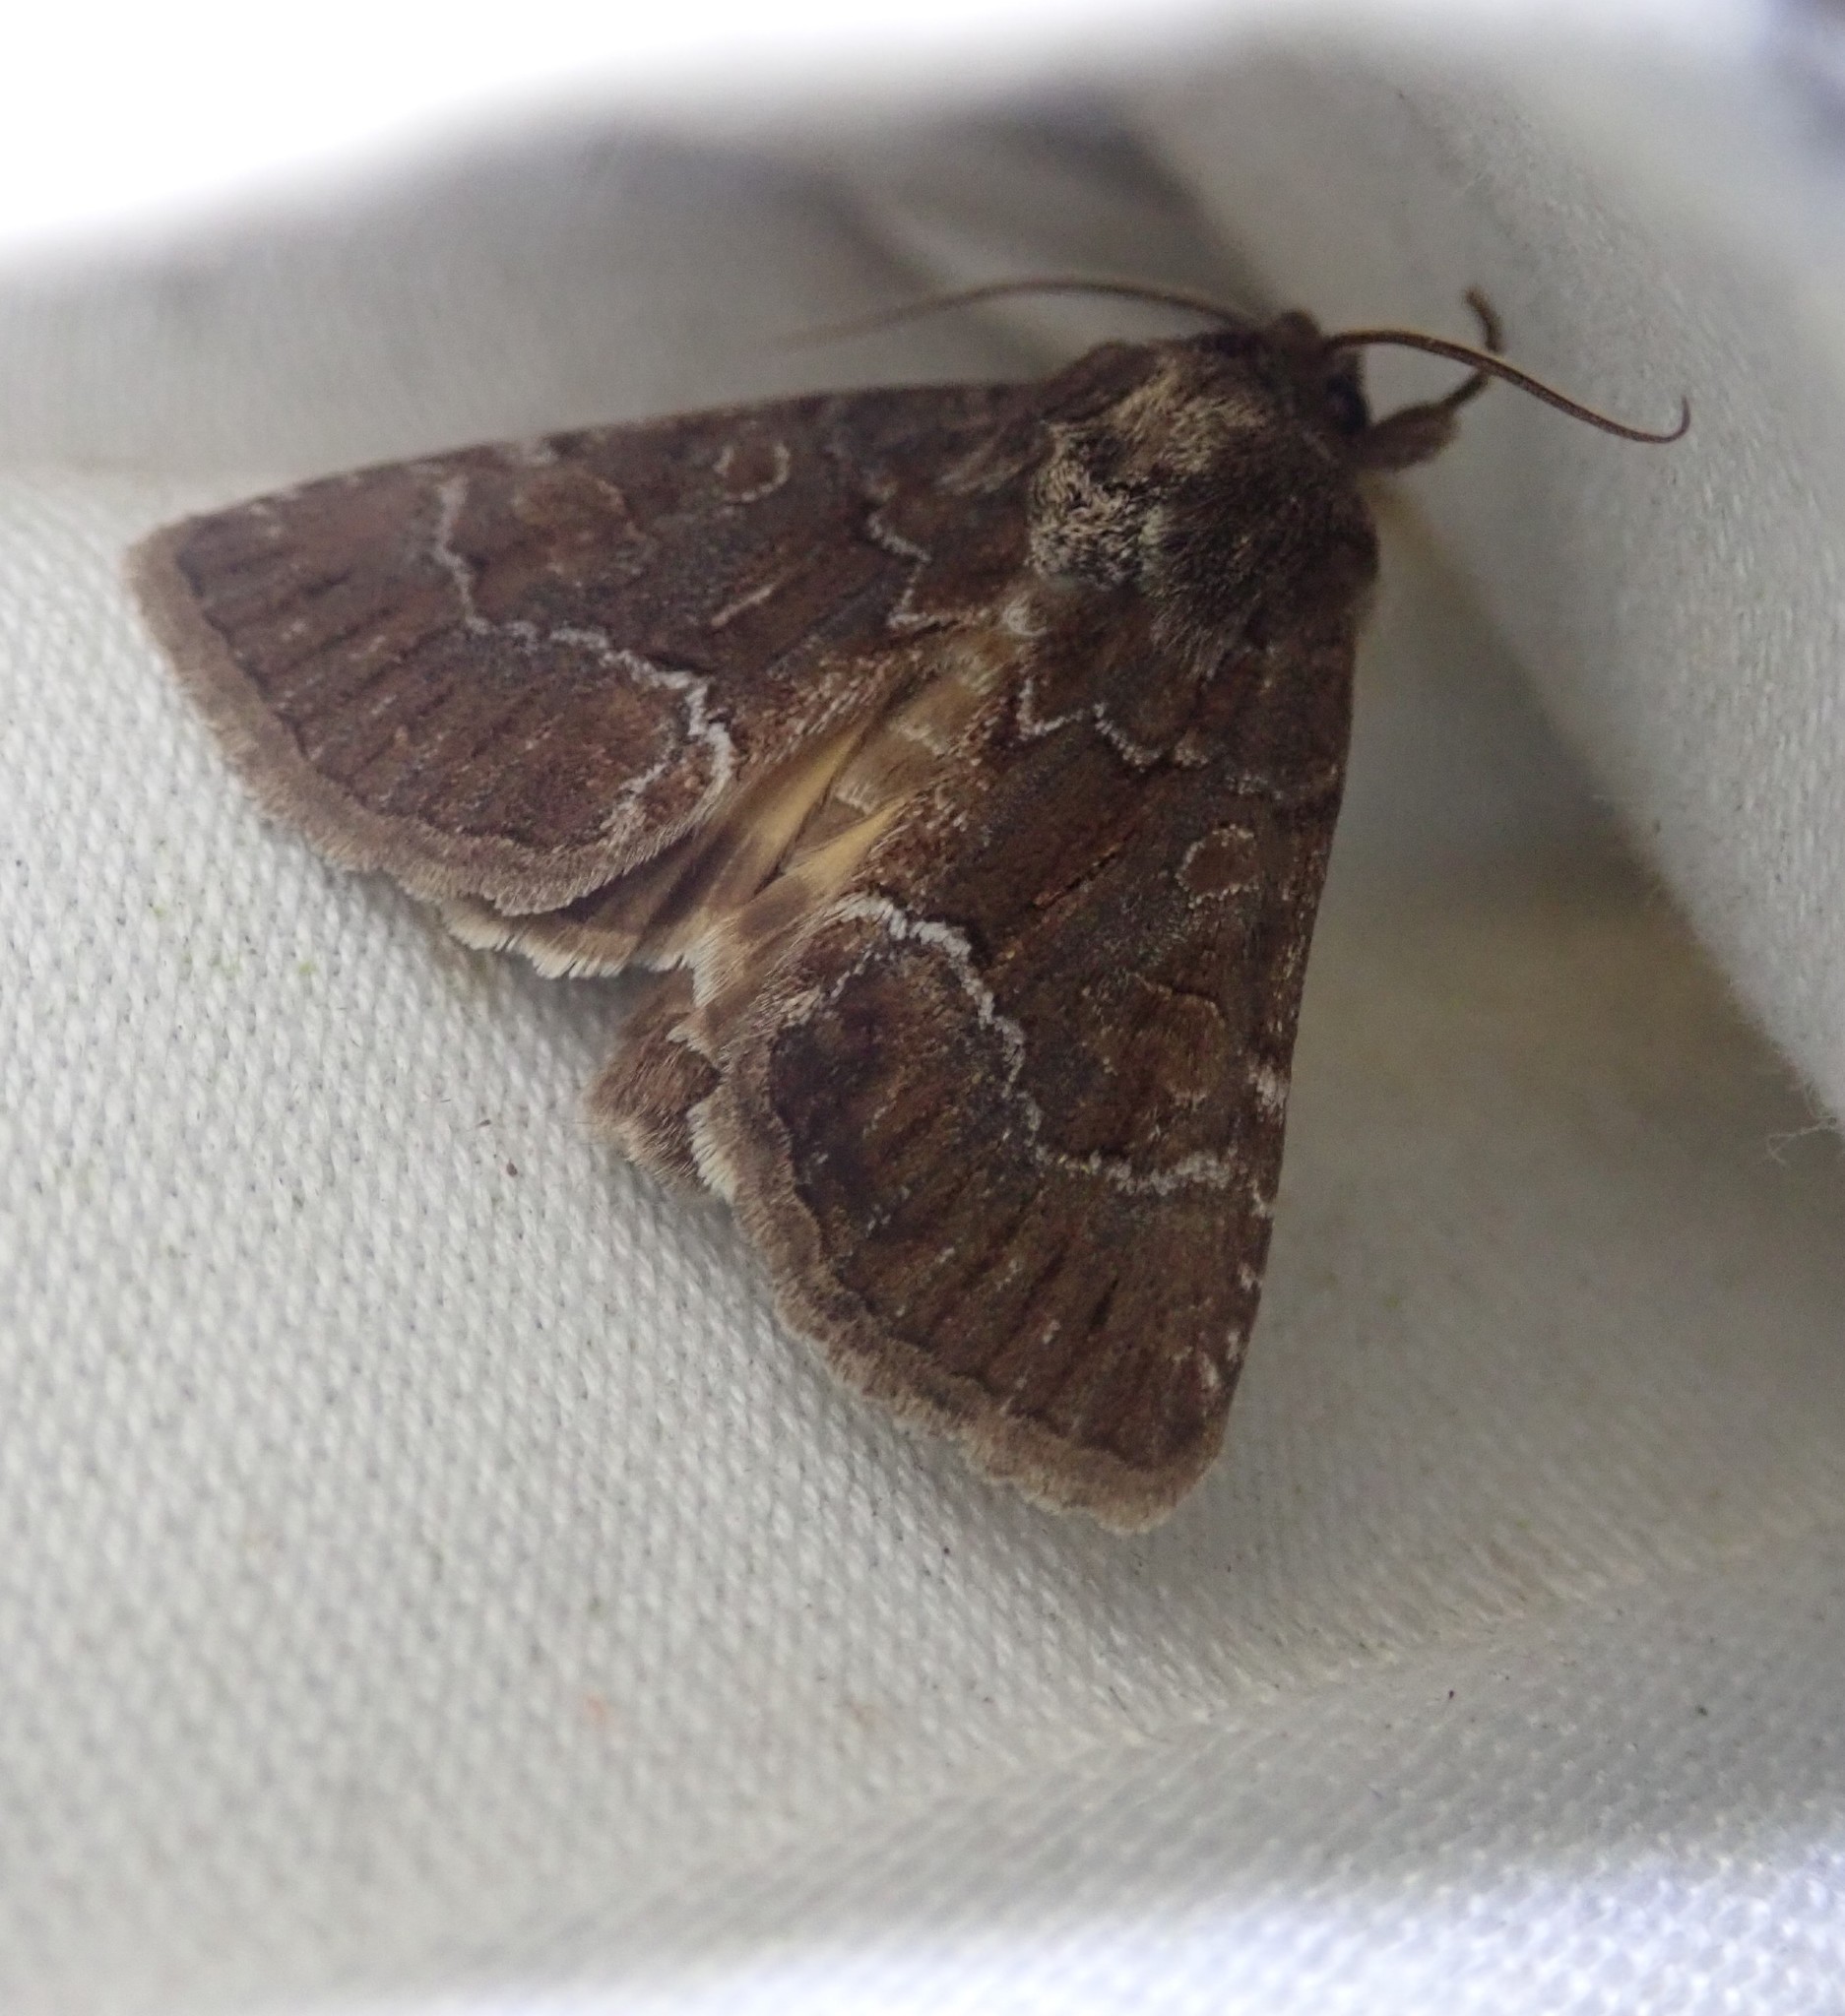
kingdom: Animalia
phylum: Arthropoda
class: Insecta
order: Lepidoptera
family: Noctuidae
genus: Thalpophila
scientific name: Thalpophila matura
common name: Straw underwing
